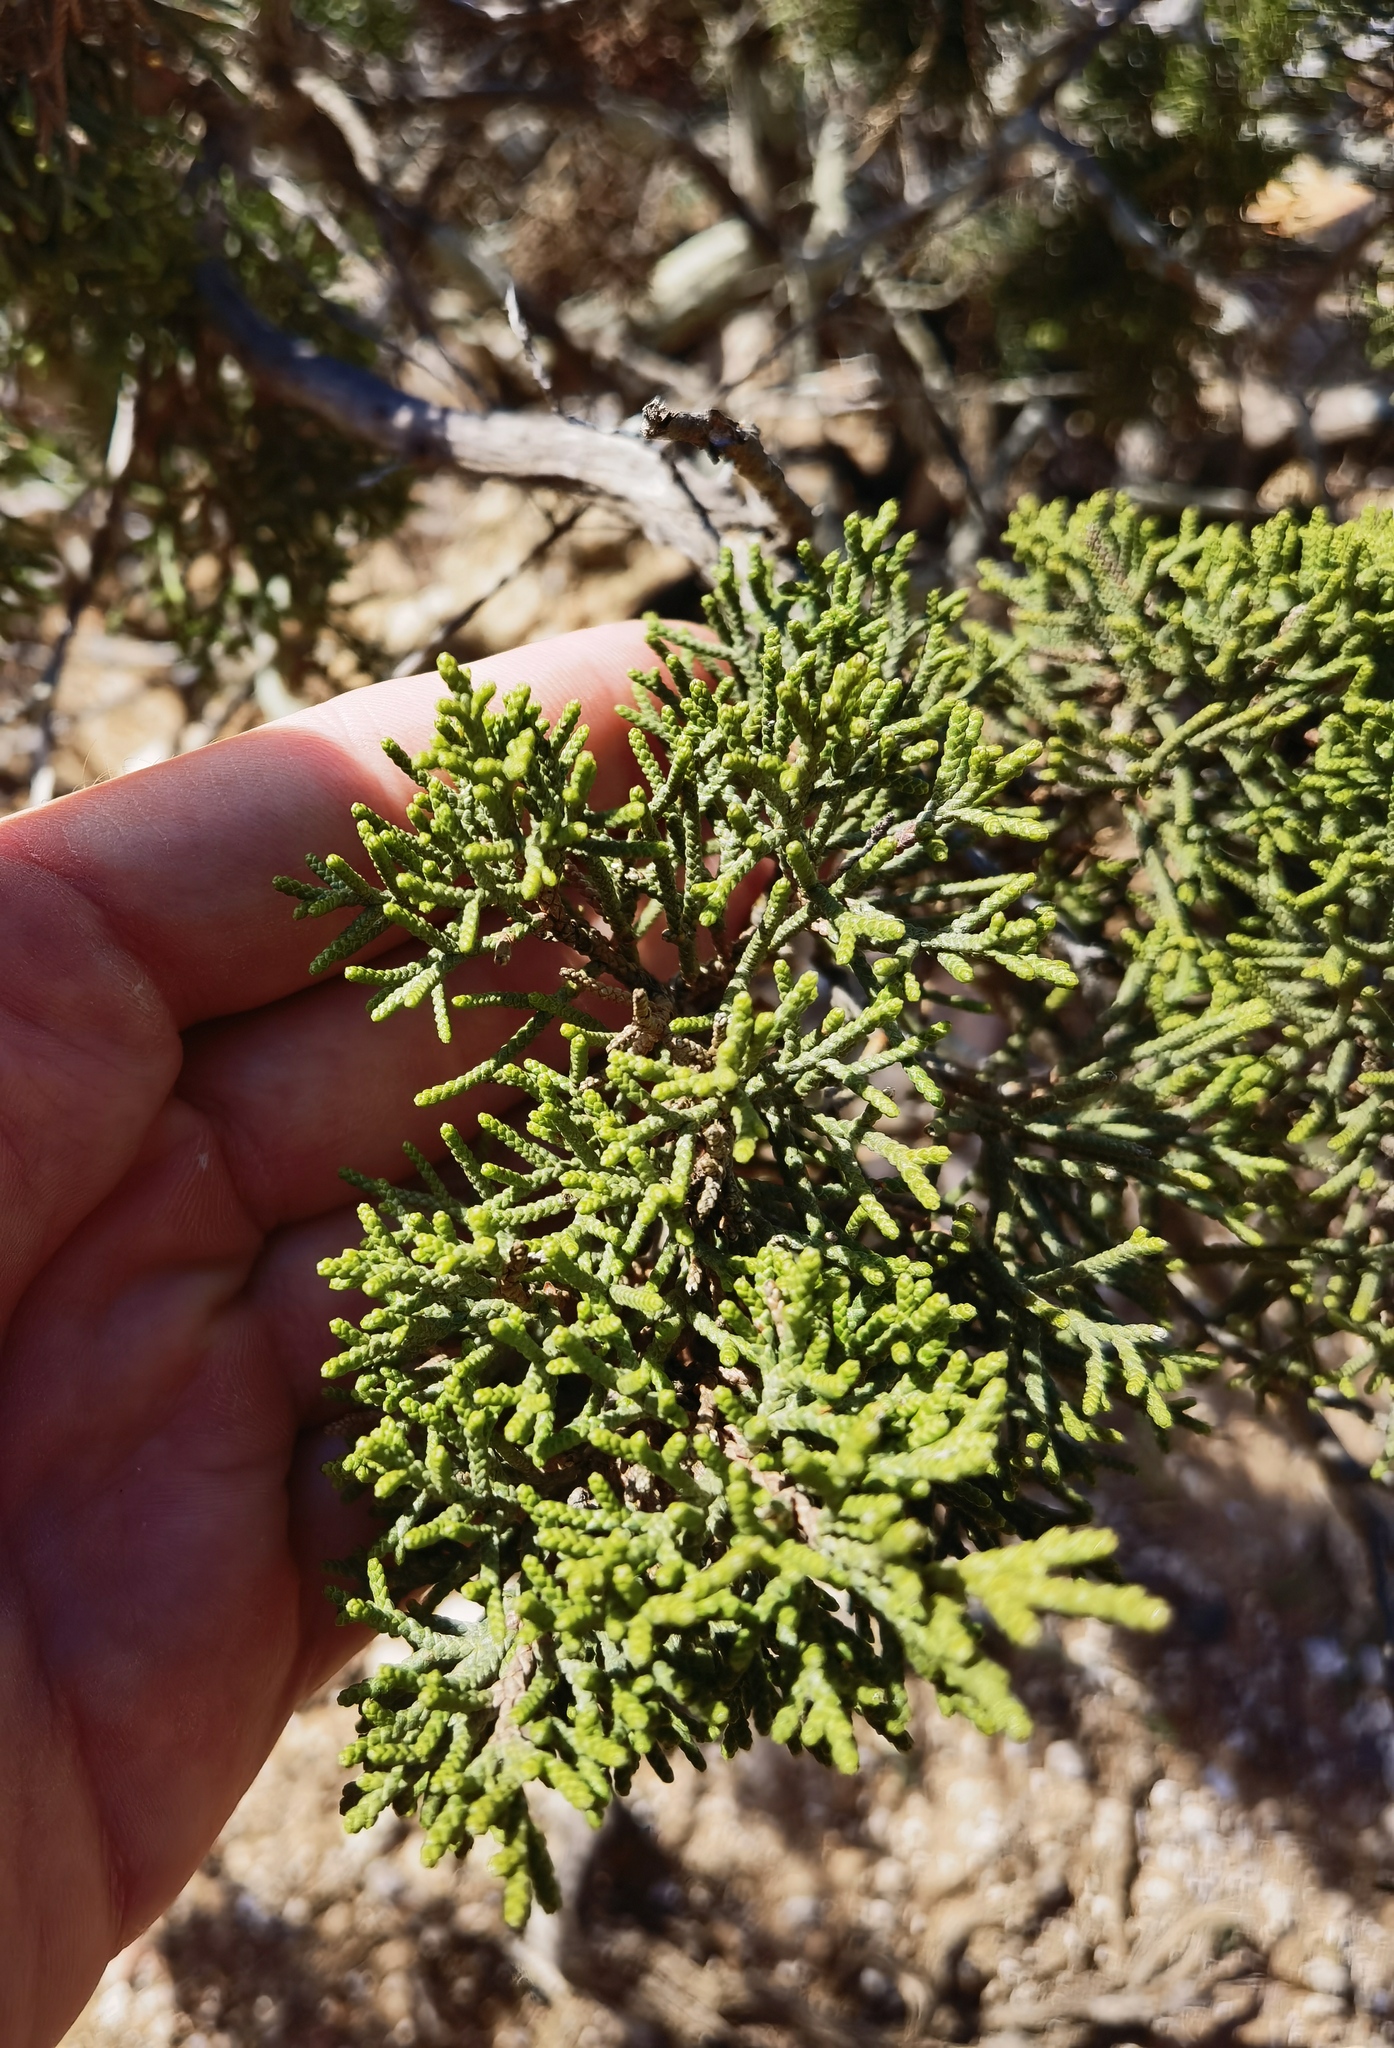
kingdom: Plantae
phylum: Tracheophyta
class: Pinopsida
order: Pinales
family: Cupressaceae
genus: Juniperus
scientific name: Juniperus phoenicea
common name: Phoenician juniper
